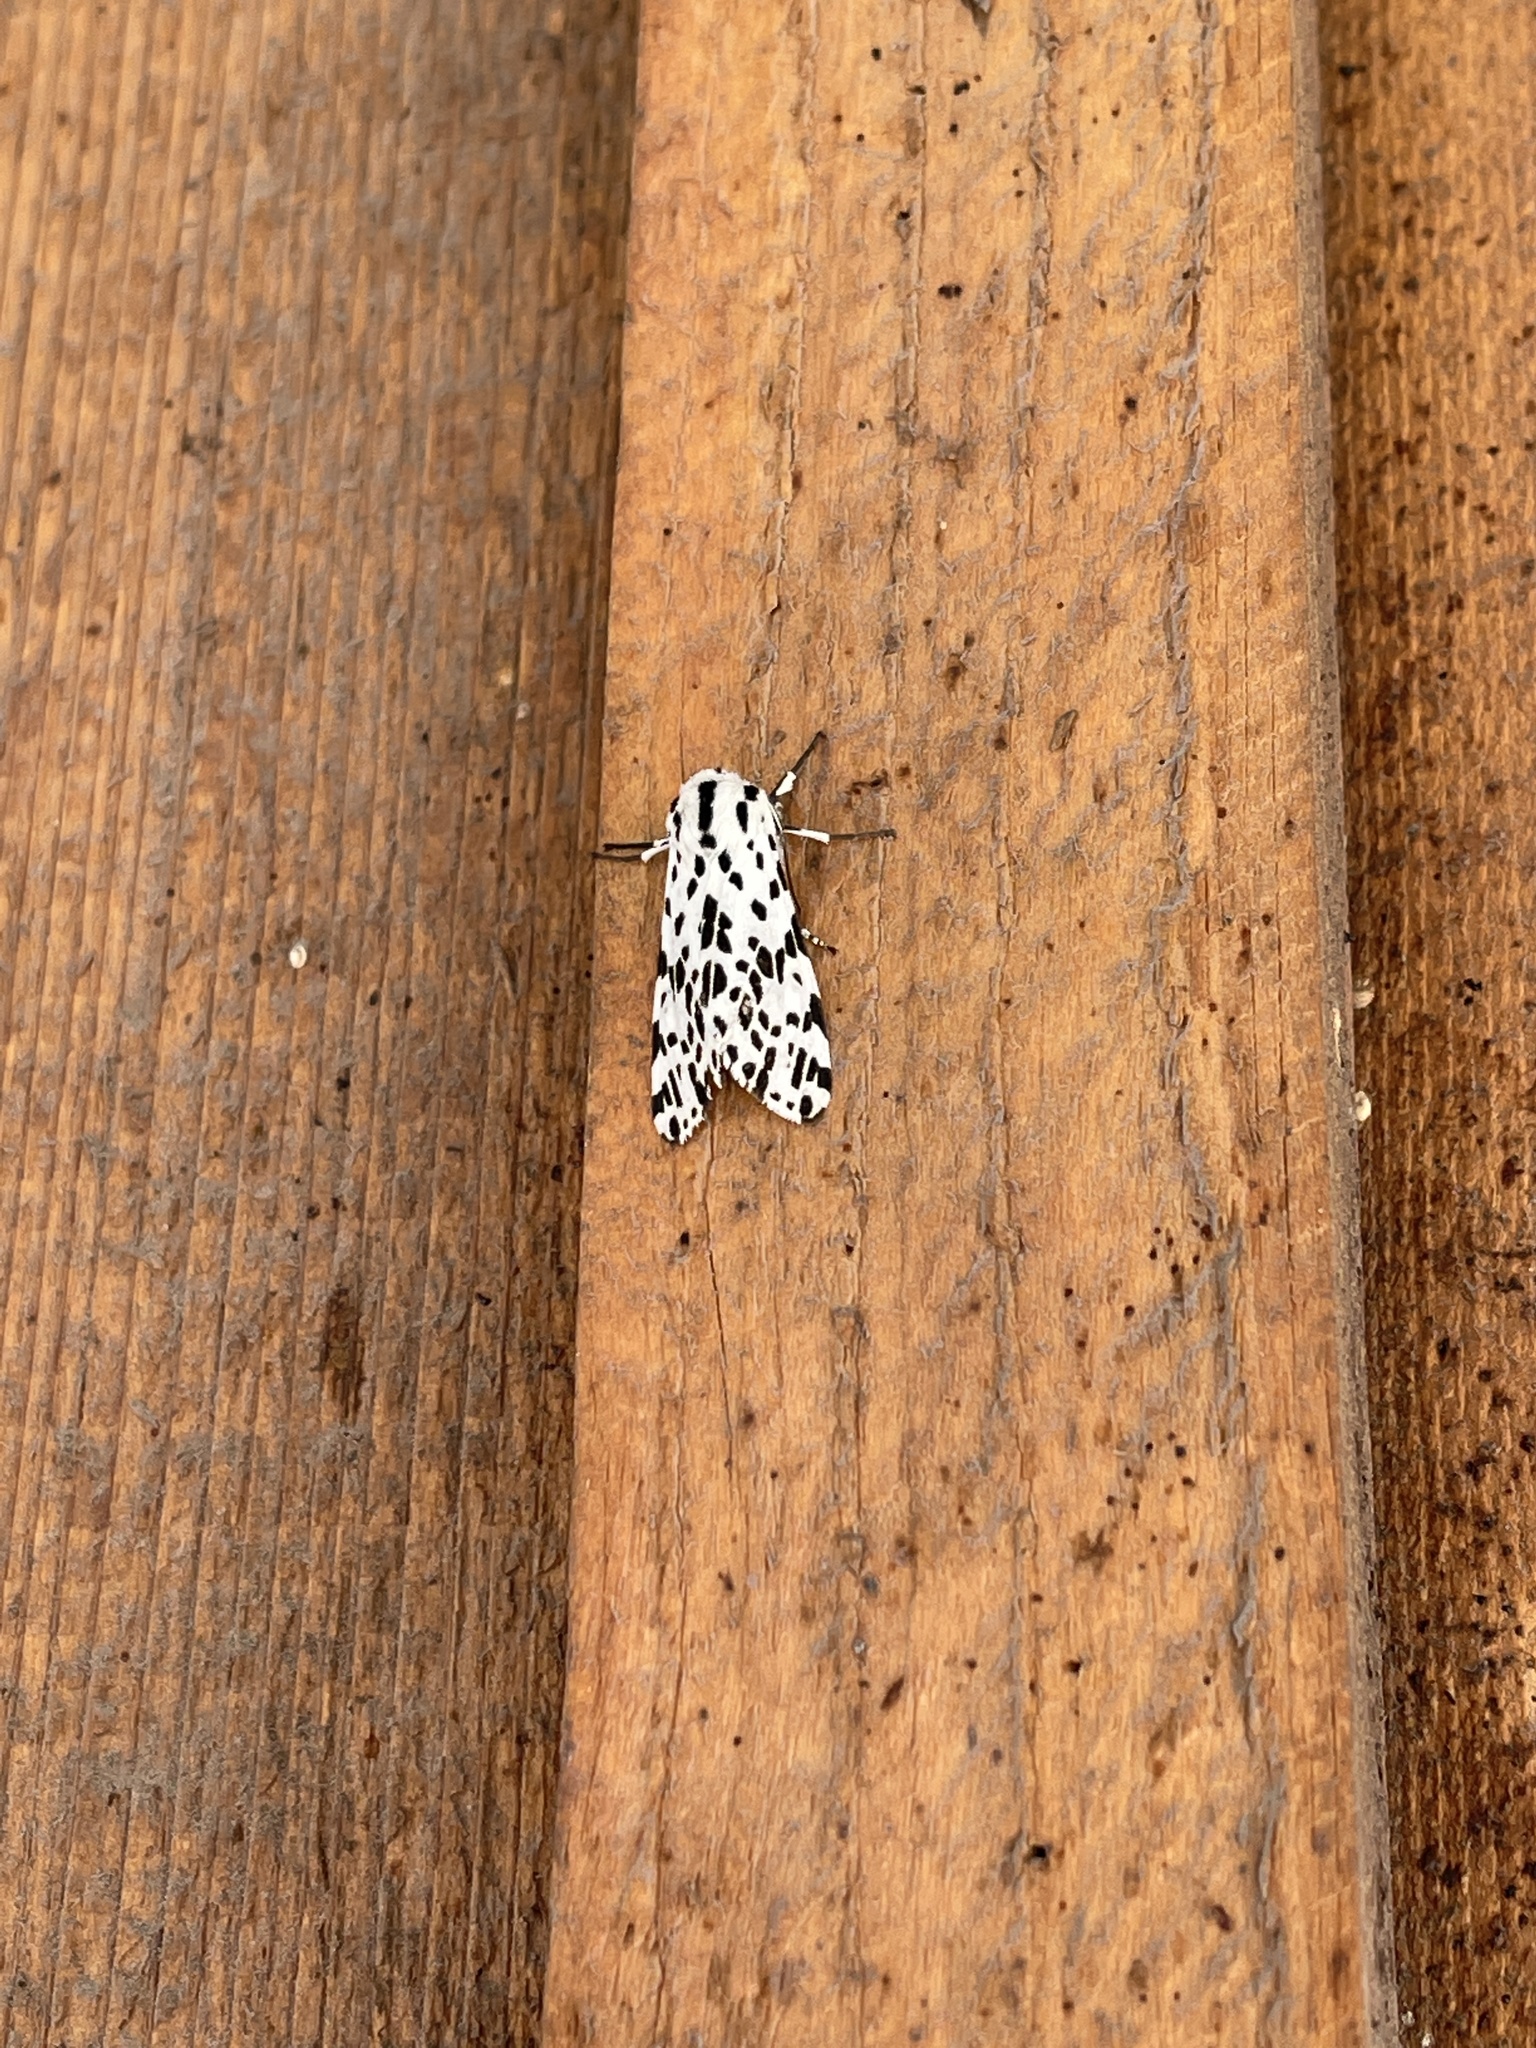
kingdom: Animalia
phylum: Arthropoda
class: Insecta
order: Lepidoptera
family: Erebidae
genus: Hypercompe
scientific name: Hypercompe permaculata
